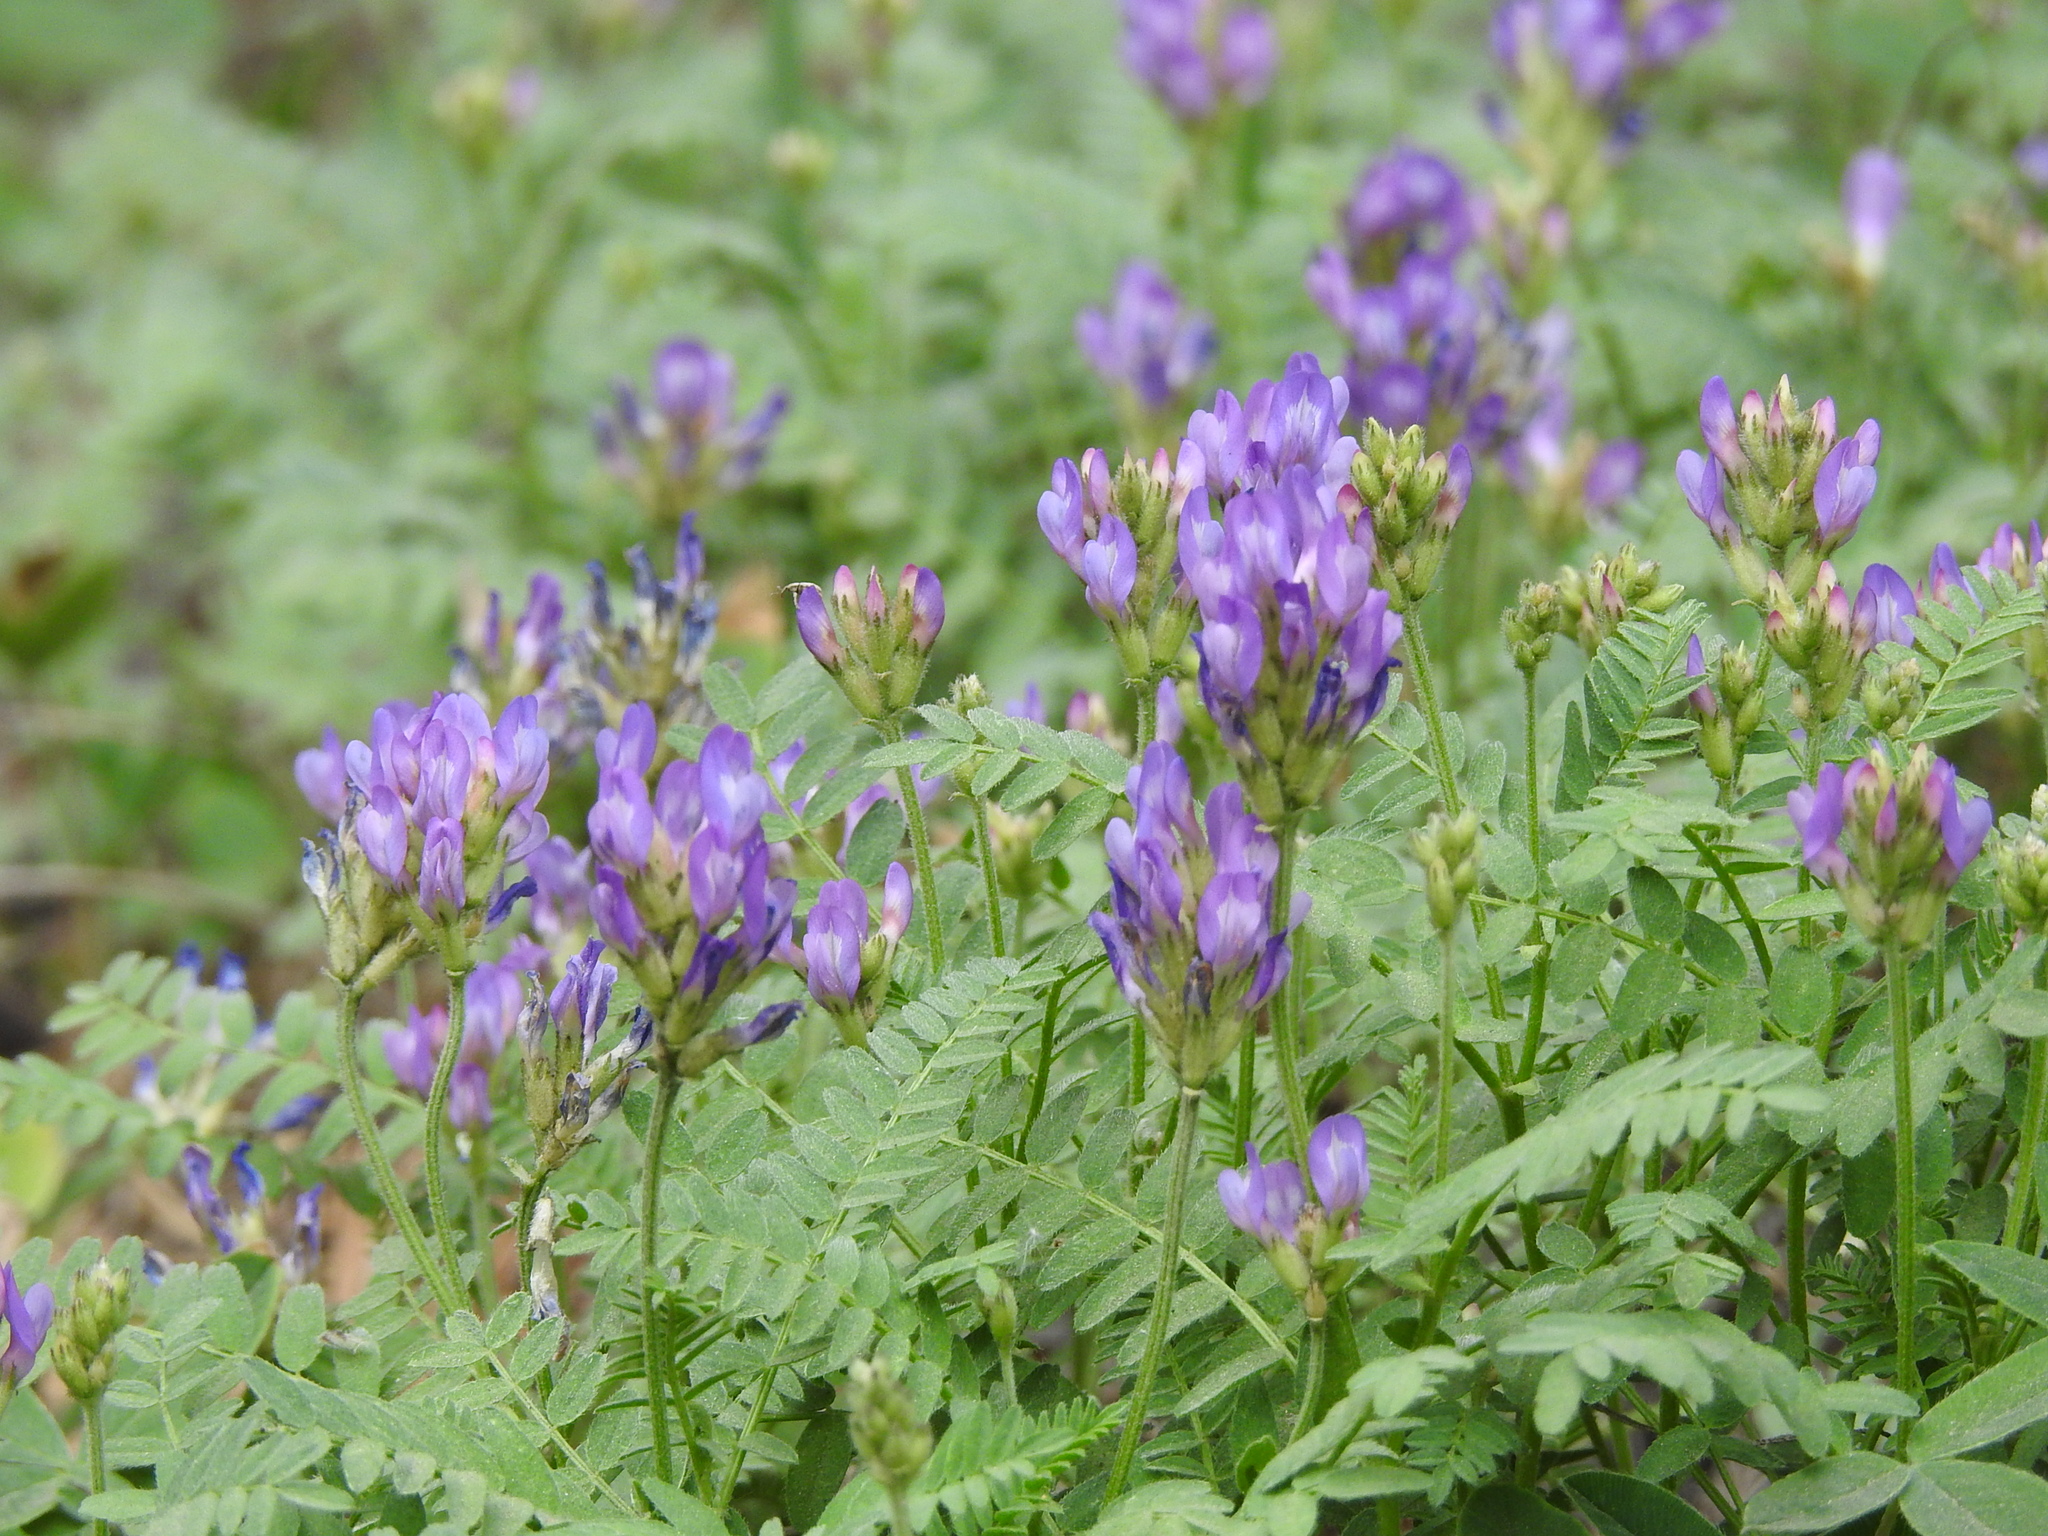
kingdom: Plantae
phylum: Tracheophyta
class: Magnoliopsida
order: Fabales
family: Fabaceae
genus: Astragalus
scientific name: Astragalus danicus
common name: Purple milk-vetch
